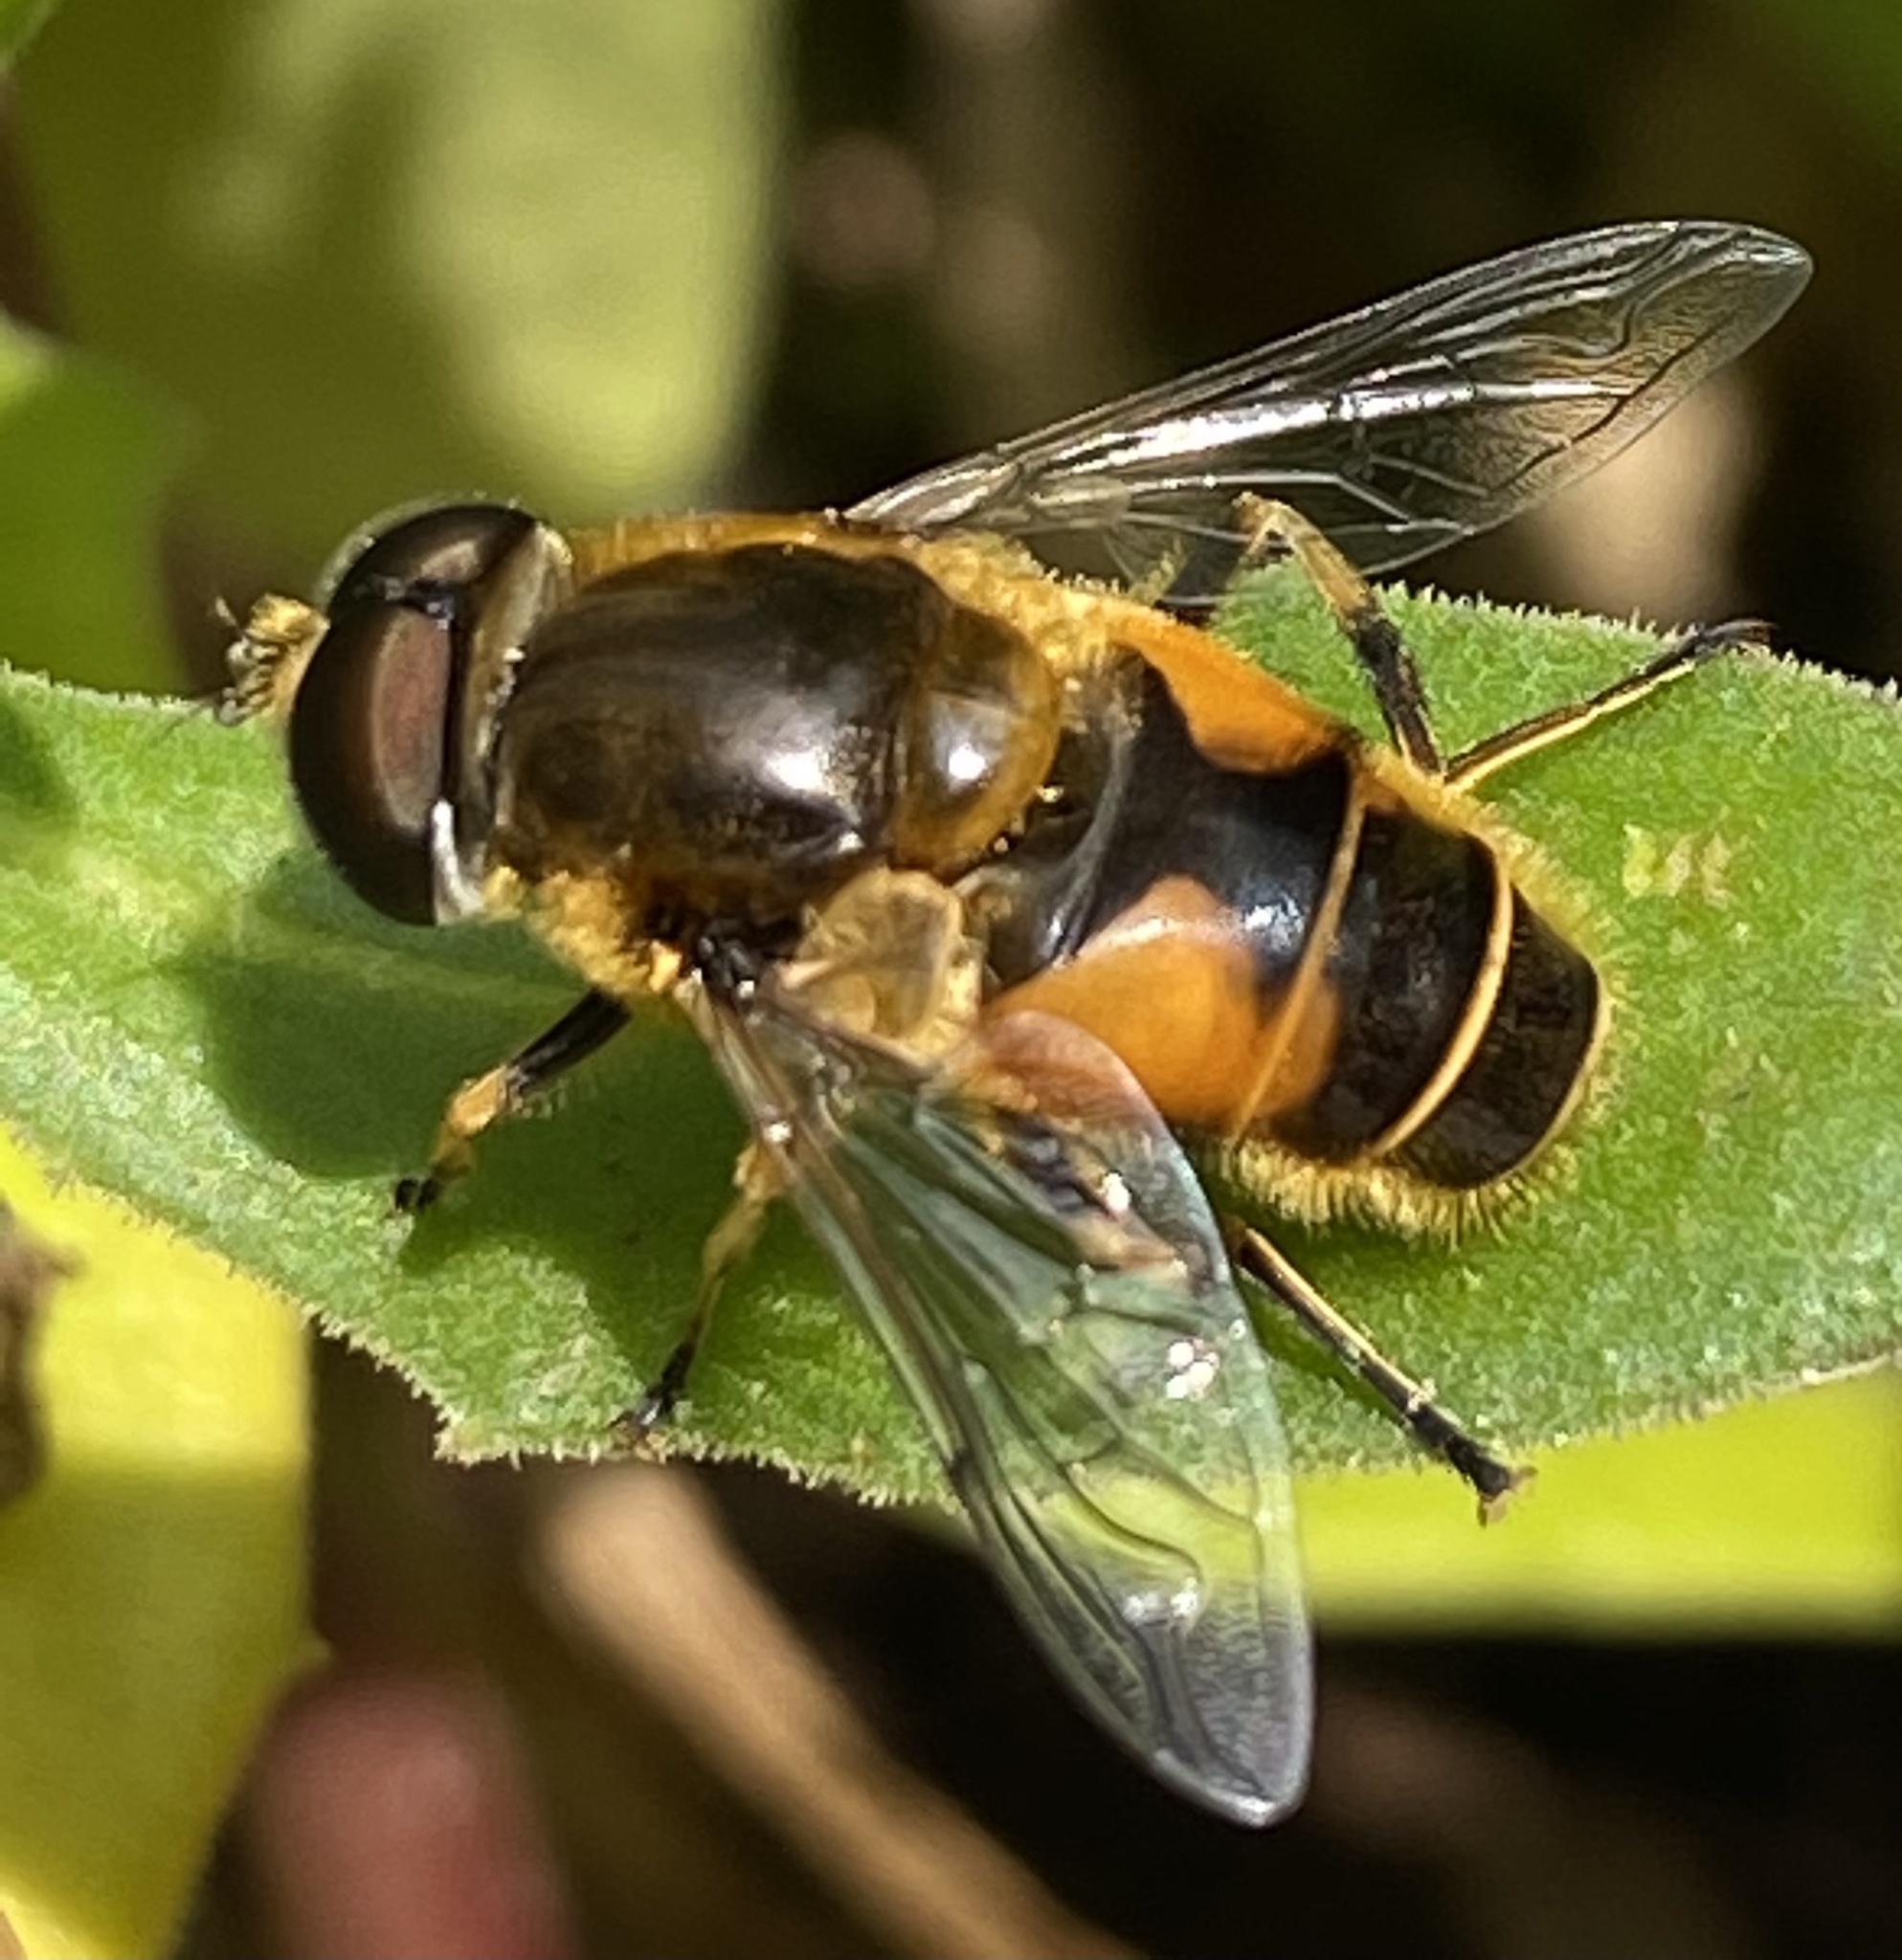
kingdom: Animalia
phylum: Arthropoda
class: Insecta
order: Diptera
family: Syrphidae
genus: Cheilosia
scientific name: Cheilosia morio
